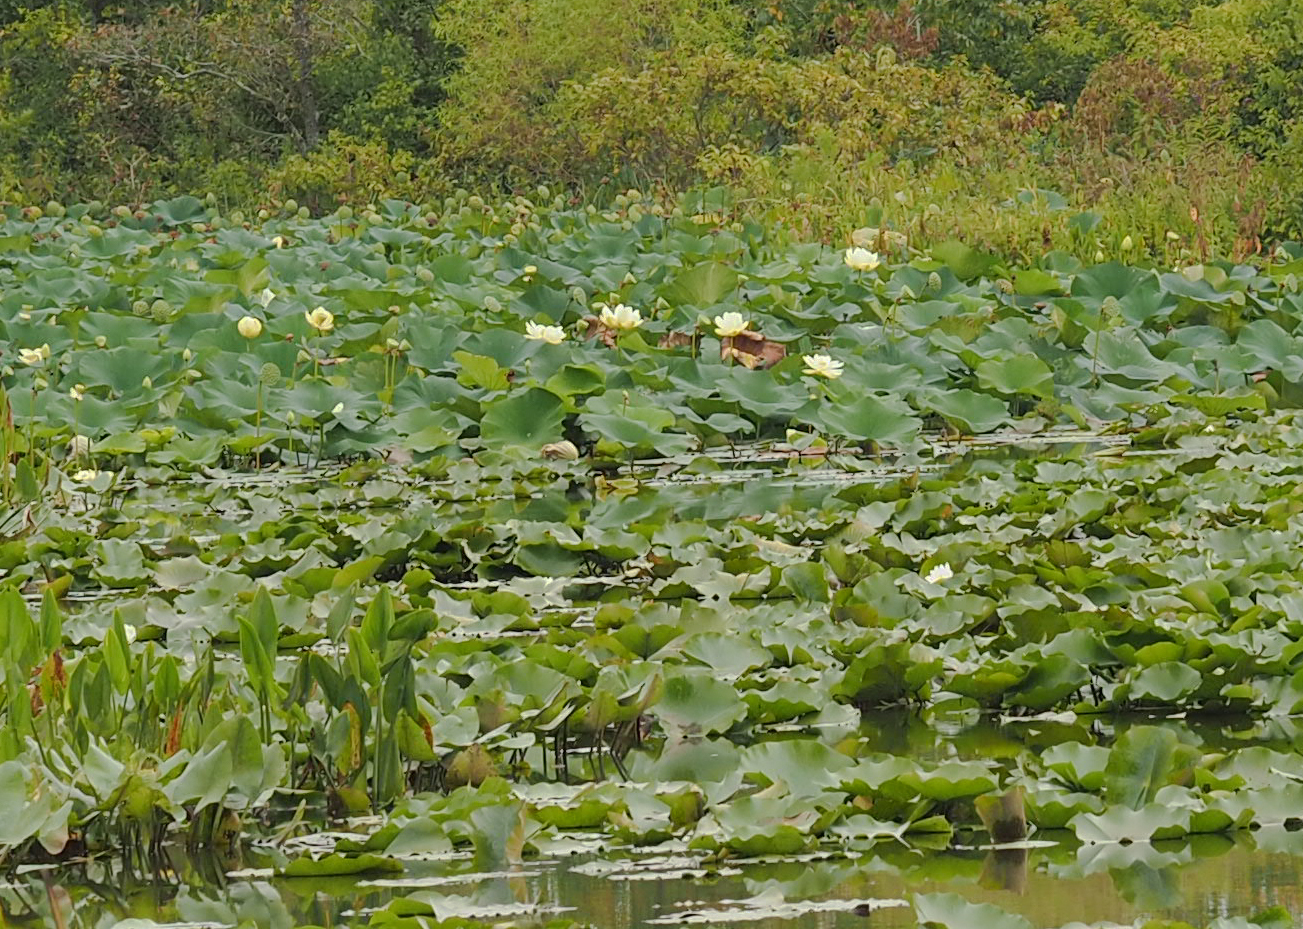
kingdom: Plantae
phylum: Tracheophyta
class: Magnoliopsida
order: Proteales
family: Nelumbonaceae
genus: Nelumbo
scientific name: Nelumbo lutea
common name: American lotus
